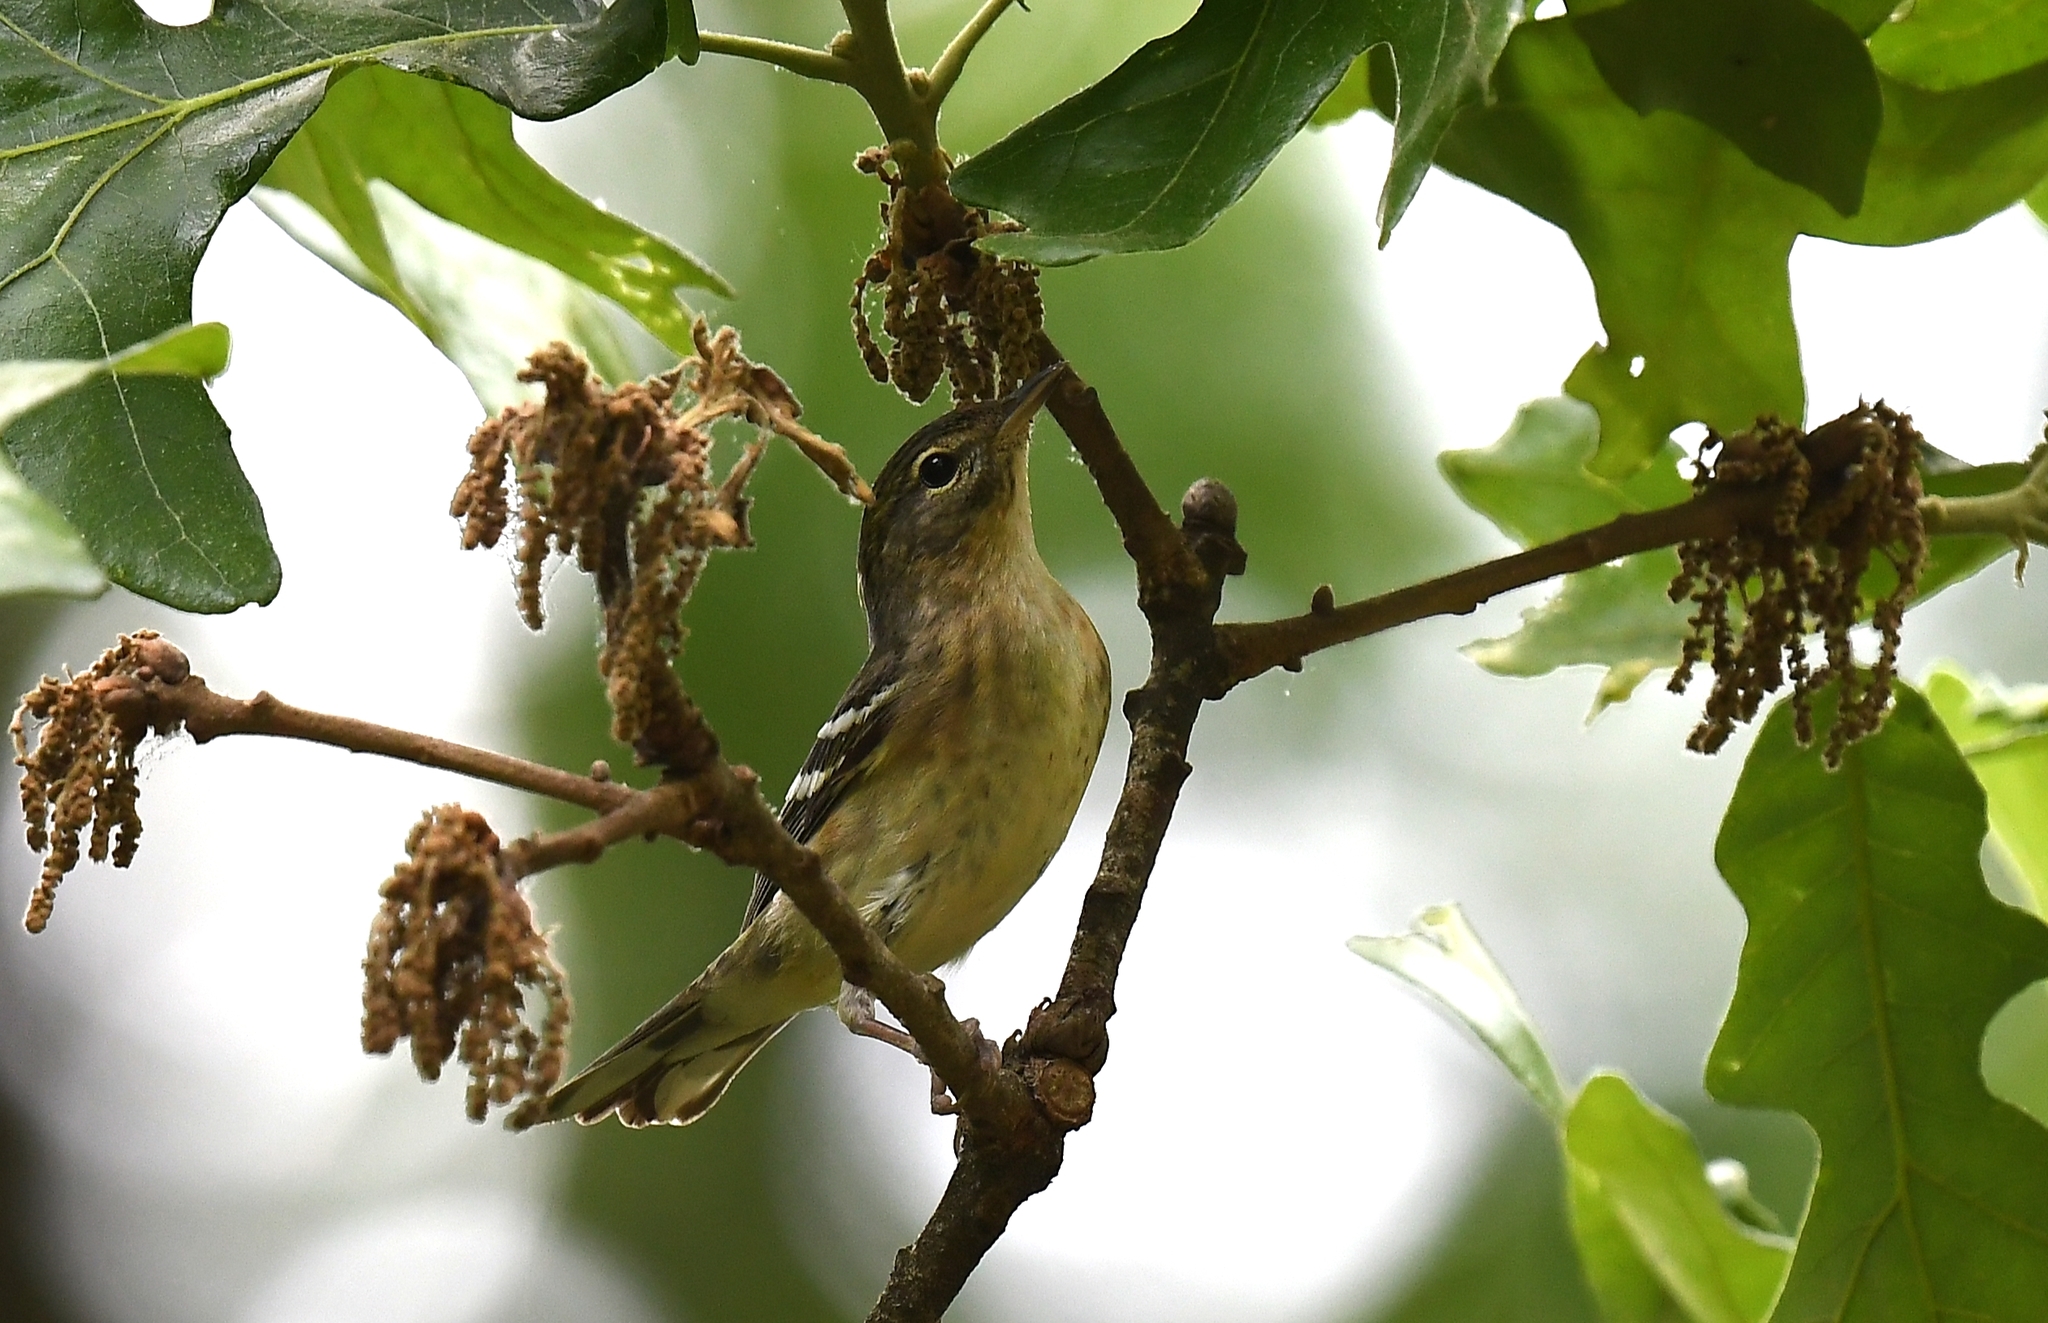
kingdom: Animalia
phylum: Chordata
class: Aves
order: Passeriformes
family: Parulidae
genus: Setophaga
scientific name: Setophaga castanea
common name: Bay-breasted warbler
